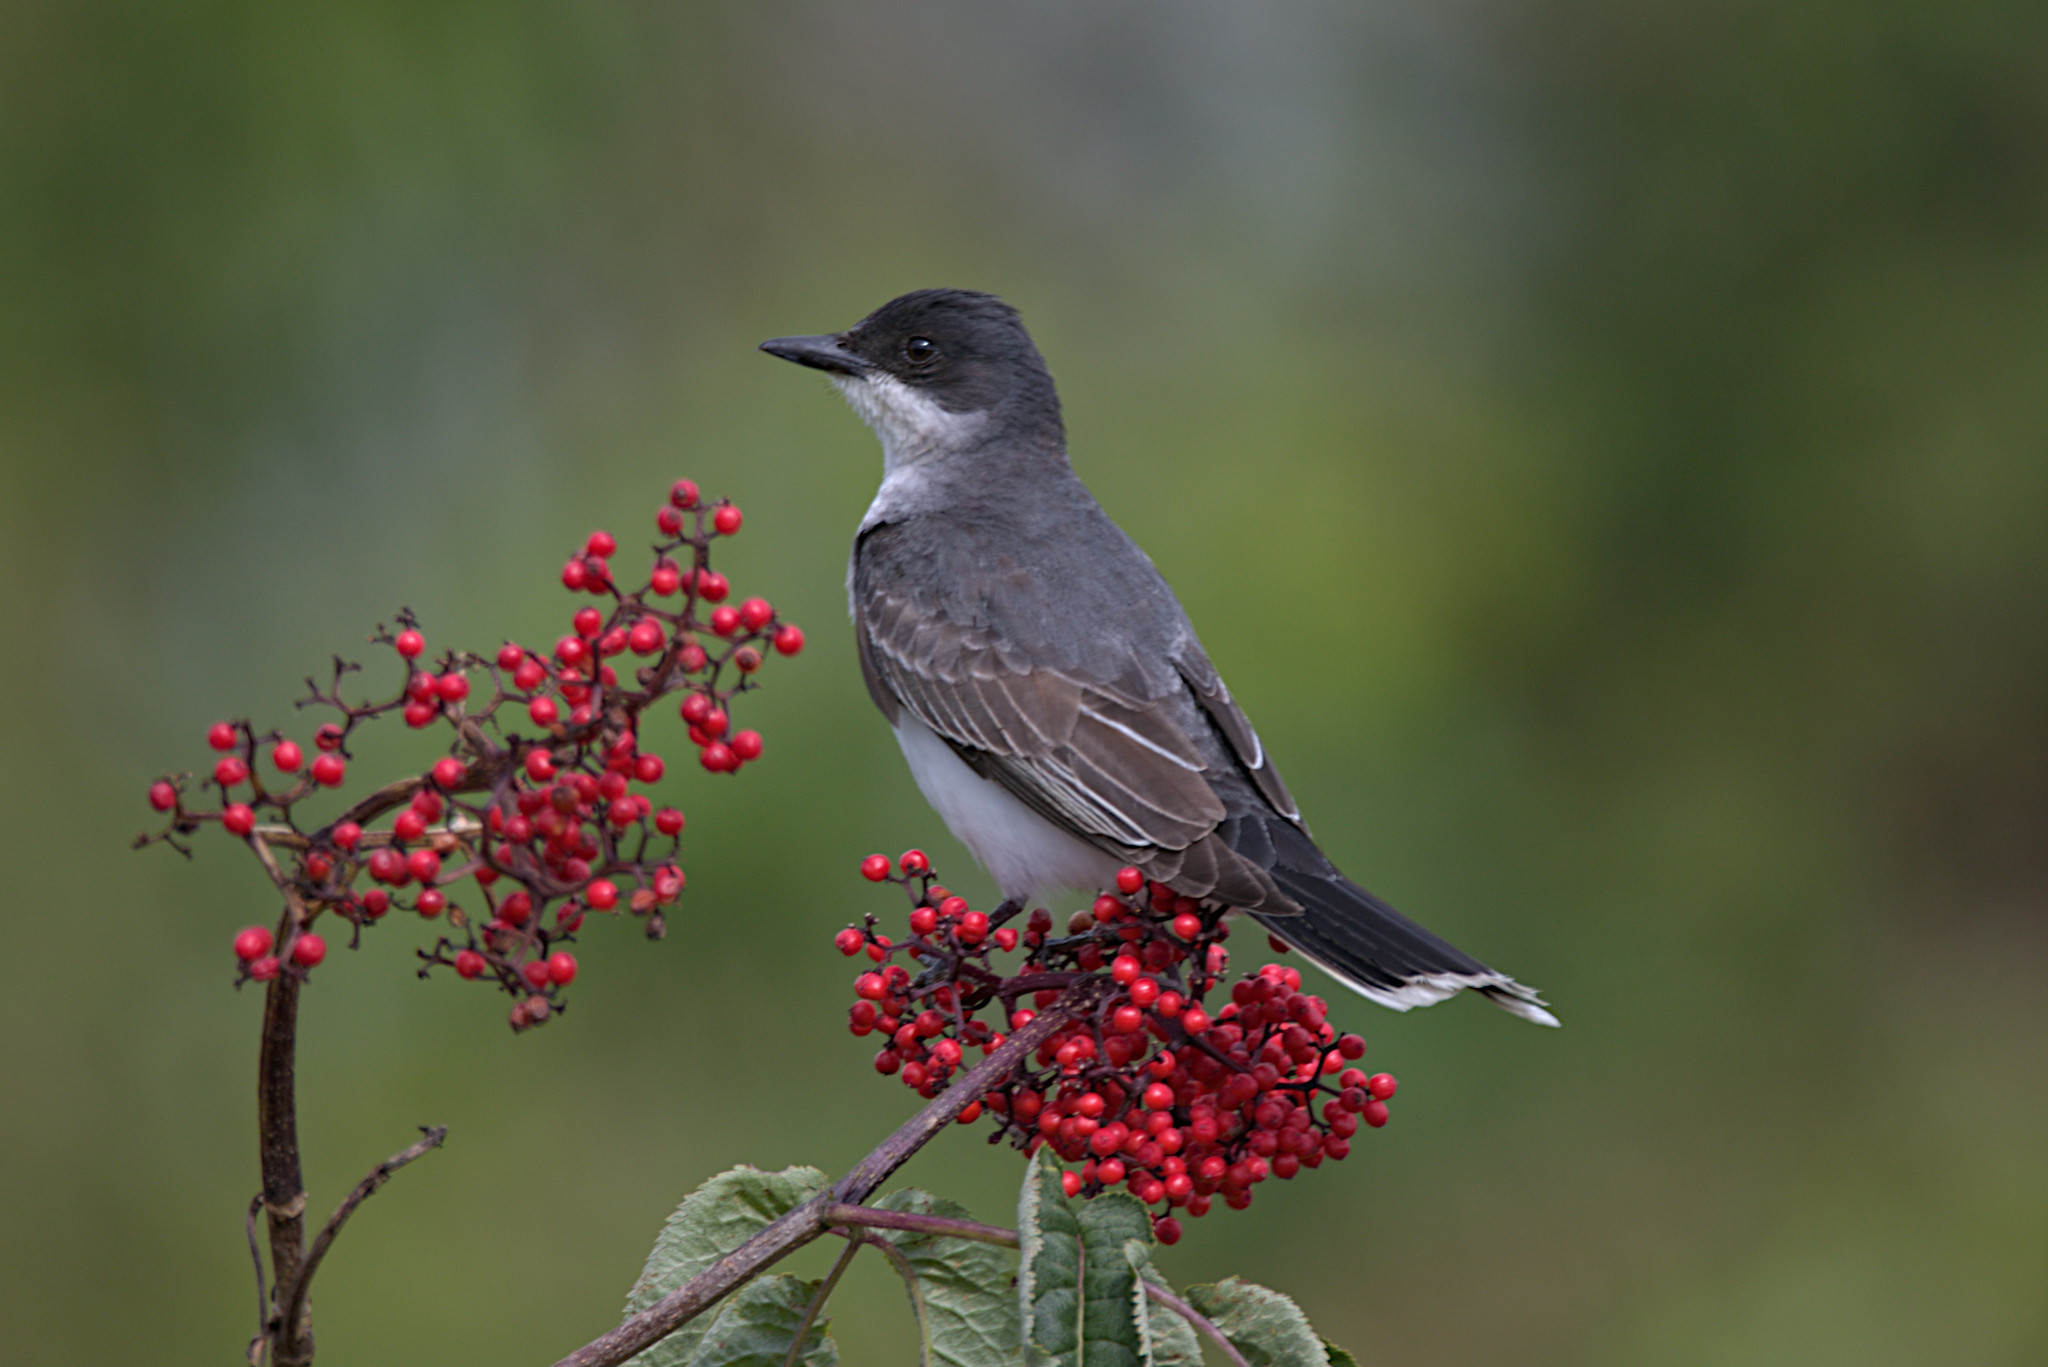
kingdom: Animalia
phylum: Chordata
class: Aves
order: Passeriformes
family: Tyrannidae
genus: Tyrannus
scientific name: Tyrannus tyrannus
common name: Eastern kingbird
